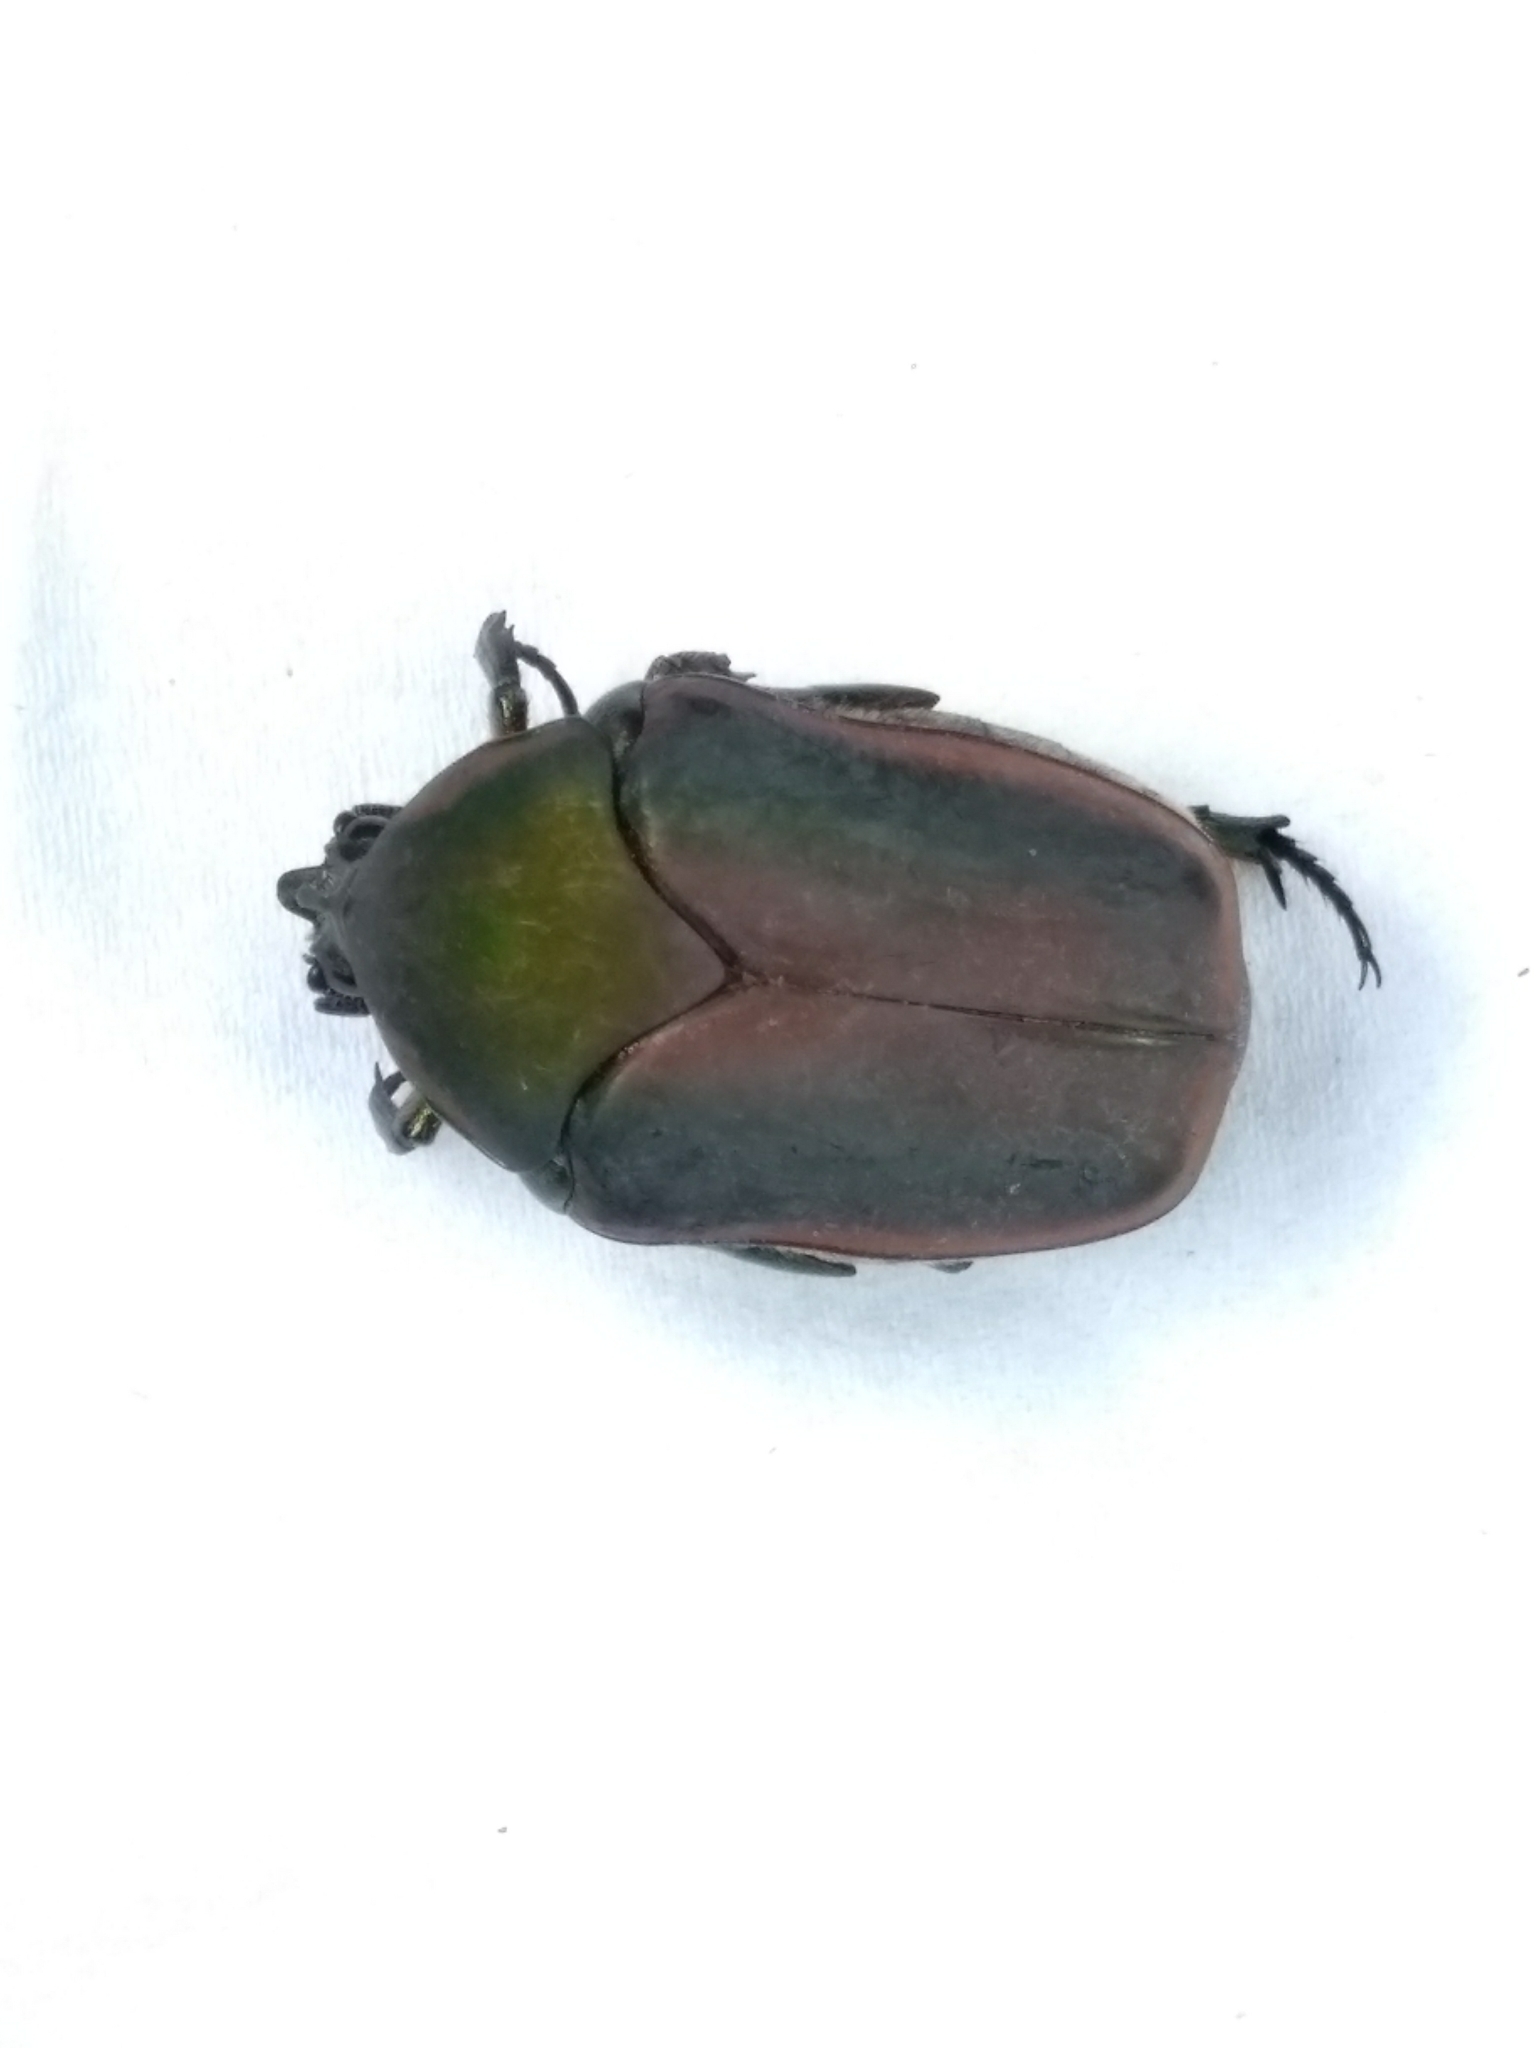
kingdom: Animalia
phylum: Arthropoda
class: Insecta
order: Coleoptera
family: Scarabaeidae
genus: Cotinis
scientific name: Cotinis nitida
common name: Common green june beetle
